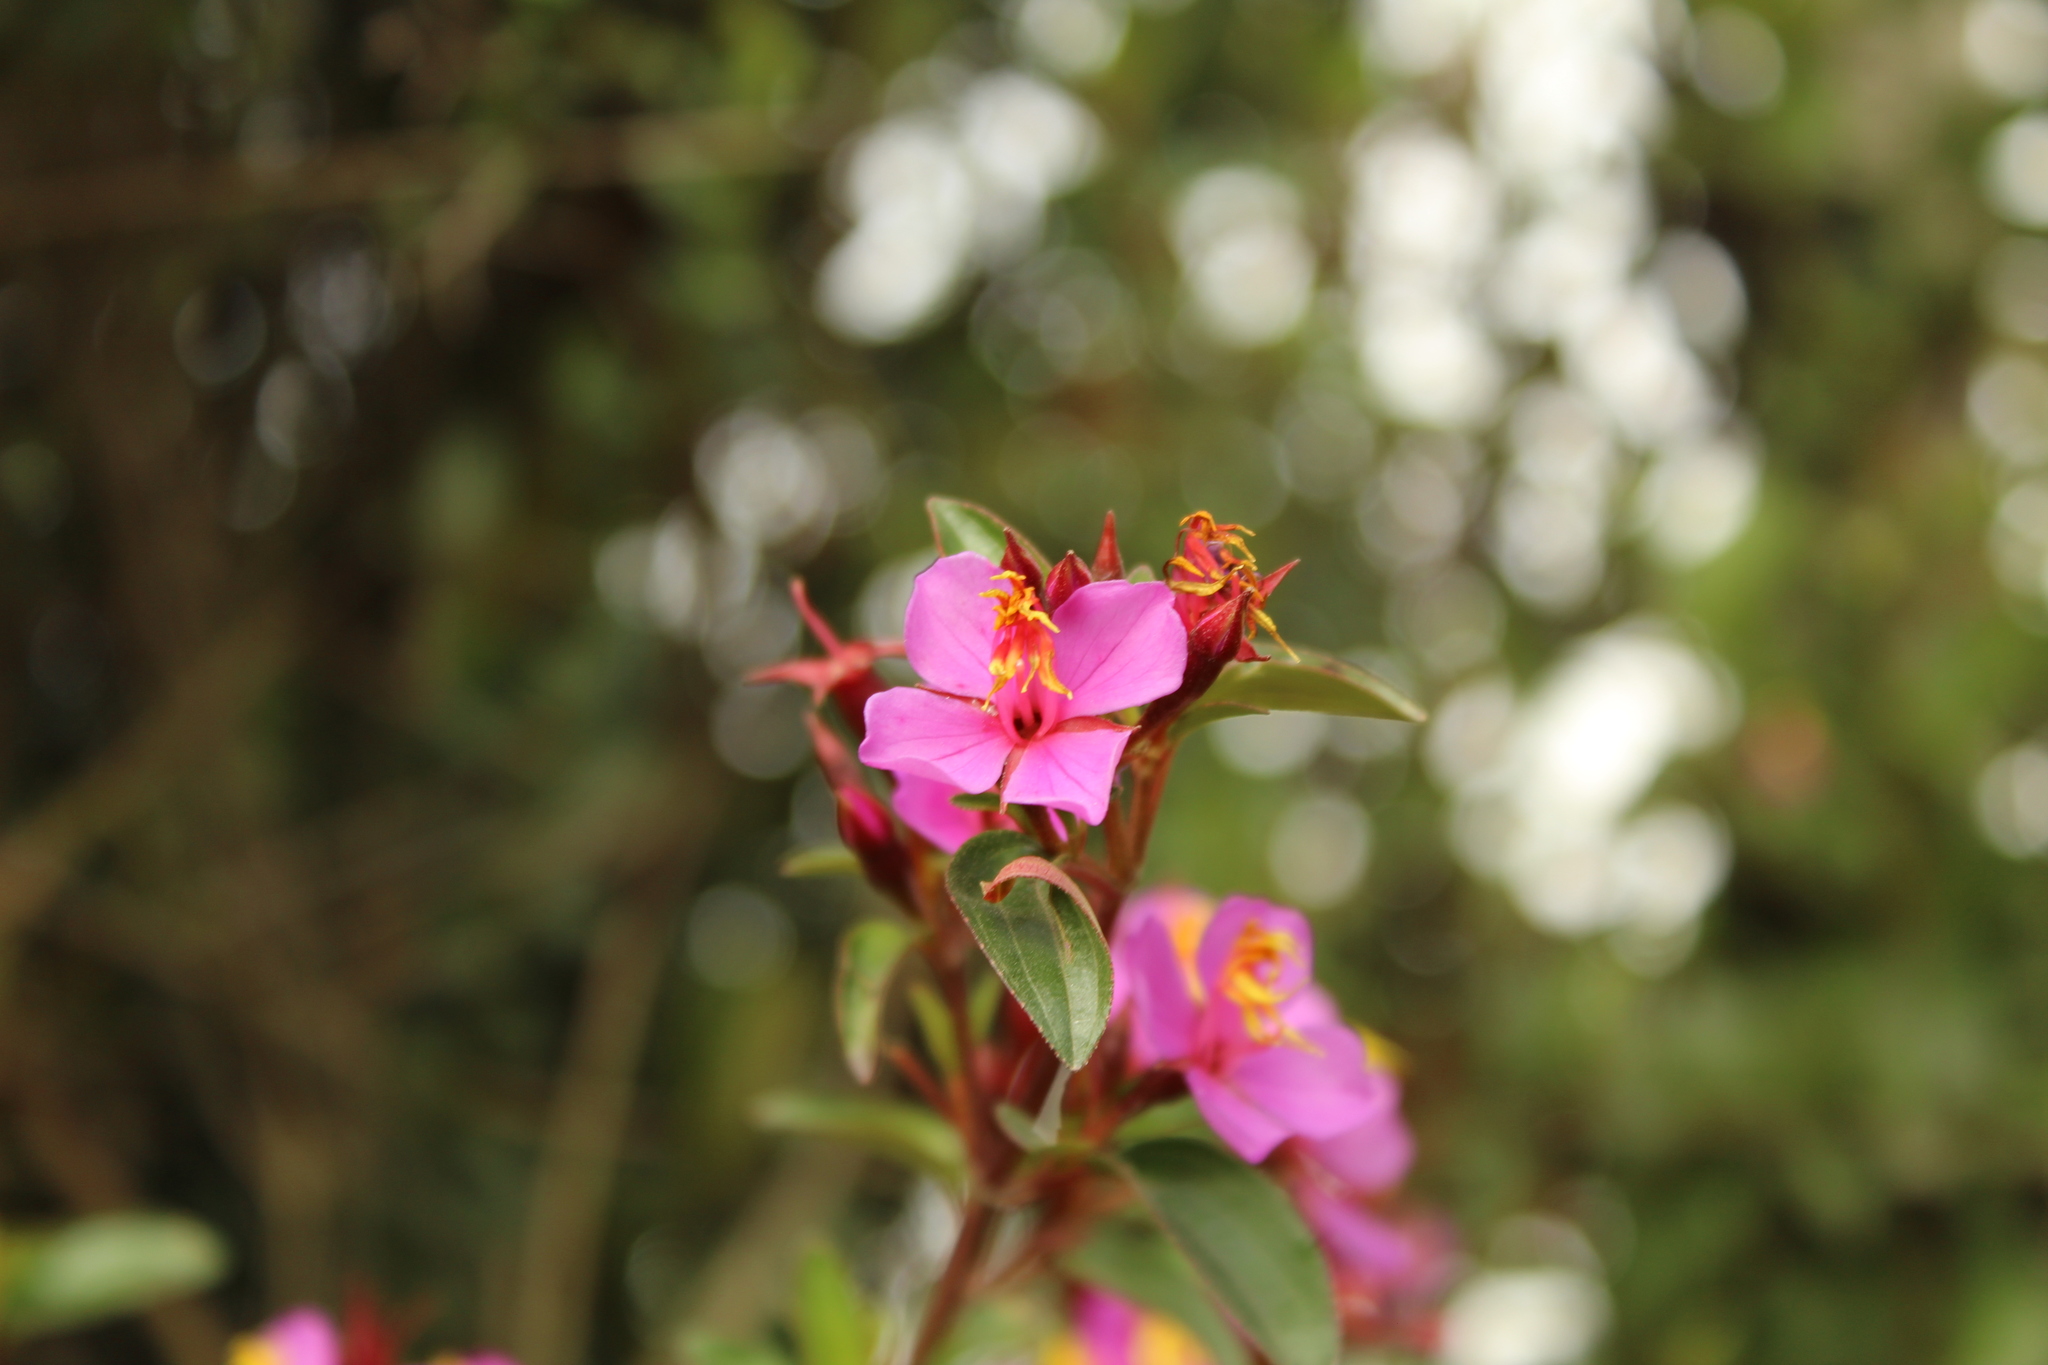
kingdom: Plantae
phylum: Tracheophyta
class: Magnoliopsida
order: Myrtales
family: Melastomataceae
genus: Monochaetum
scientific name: Monochaetum myrtoideum
